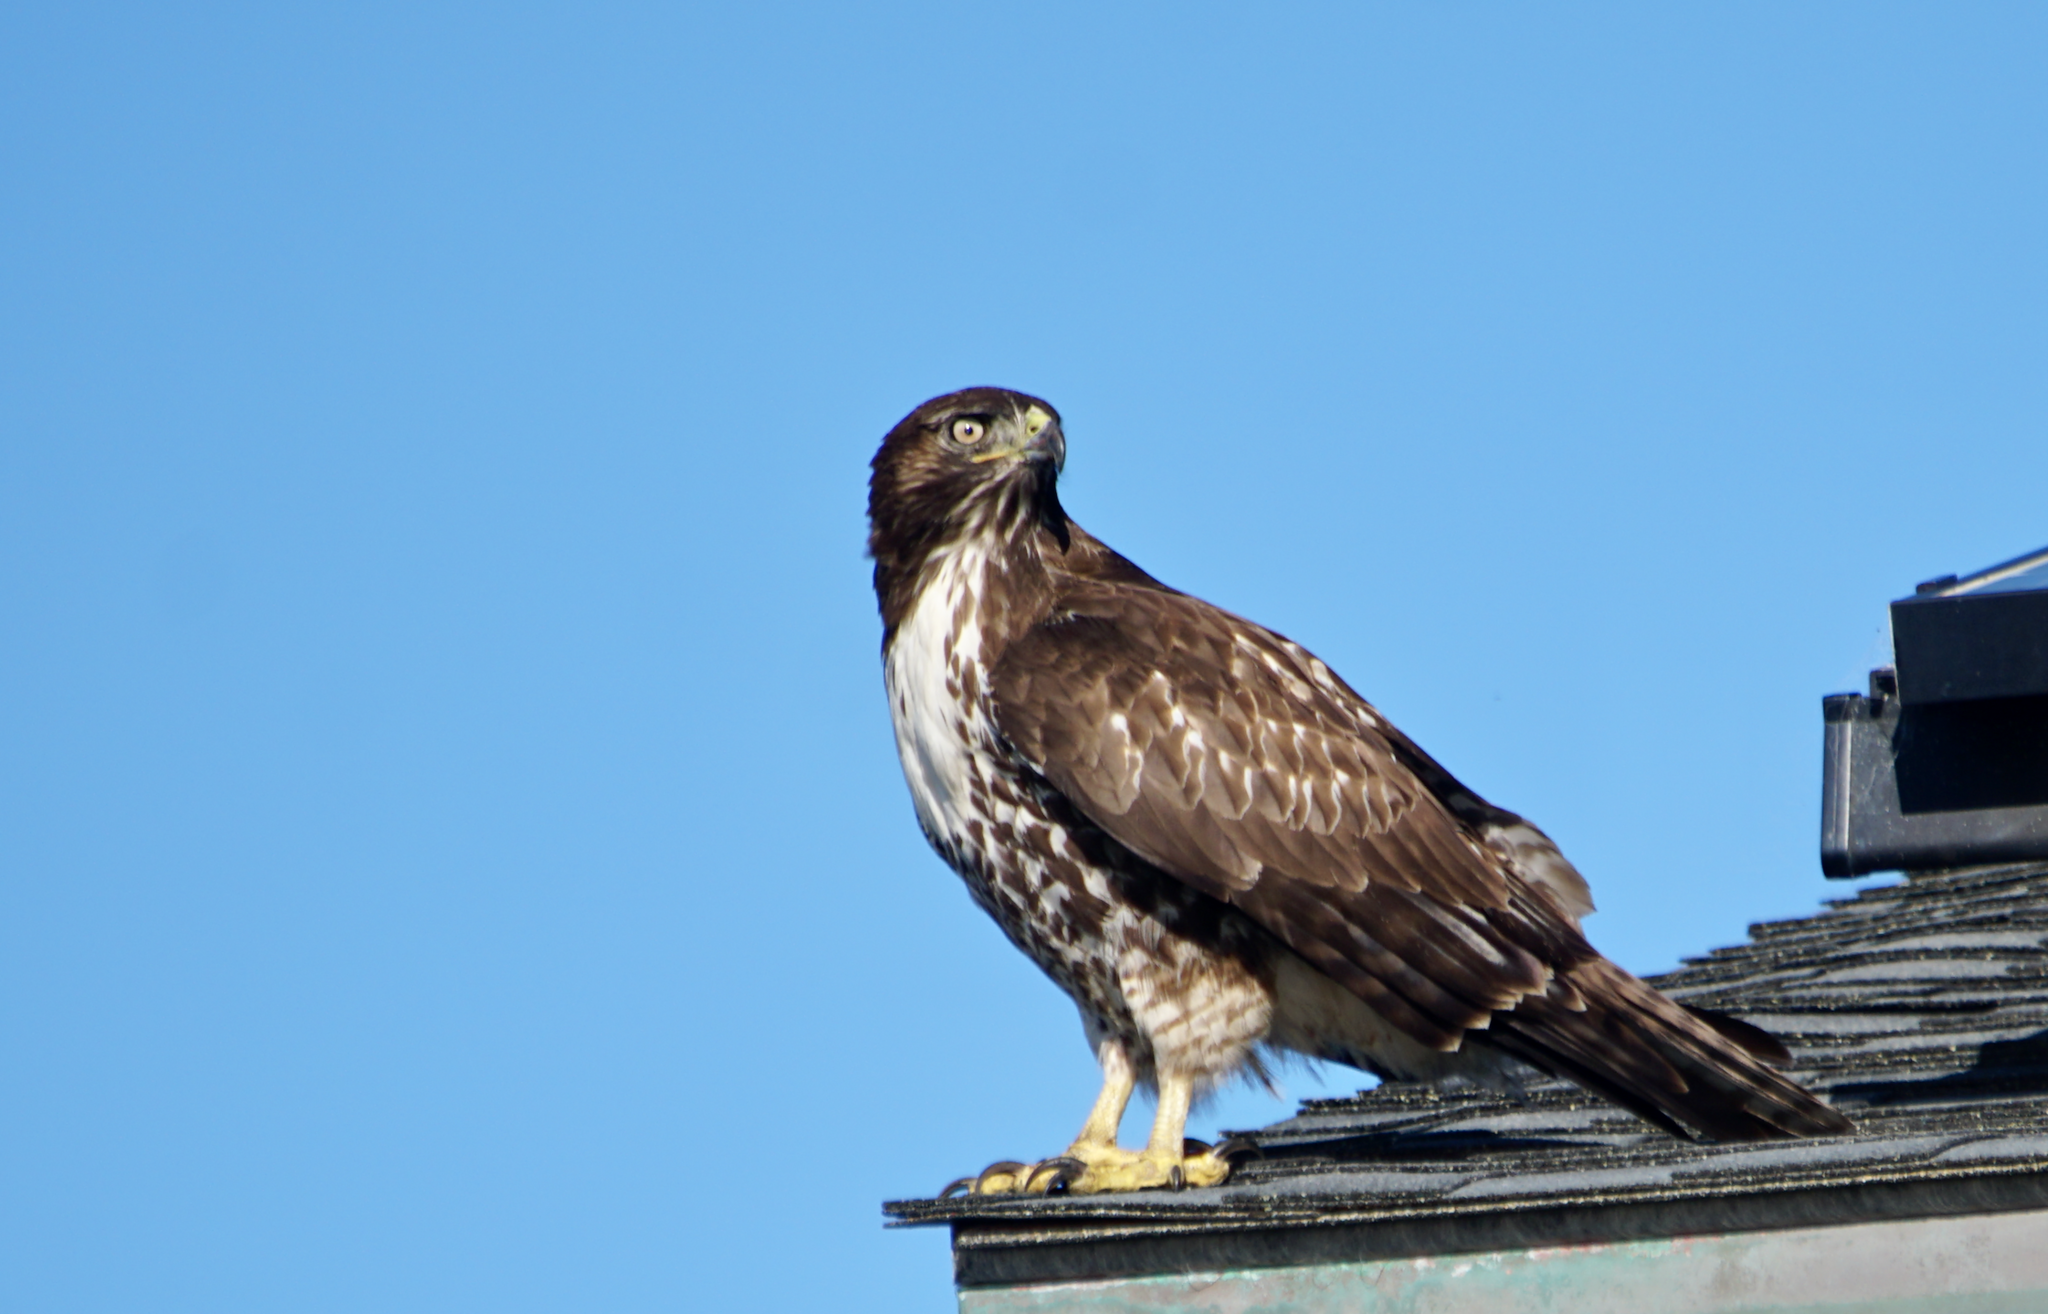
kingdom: Animalia
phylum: Chordata
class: Aves
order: Accipitriformes
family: Accipitridae
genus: Buteo
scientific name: Buteo jamaicensis
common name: Red-tailed hawk
